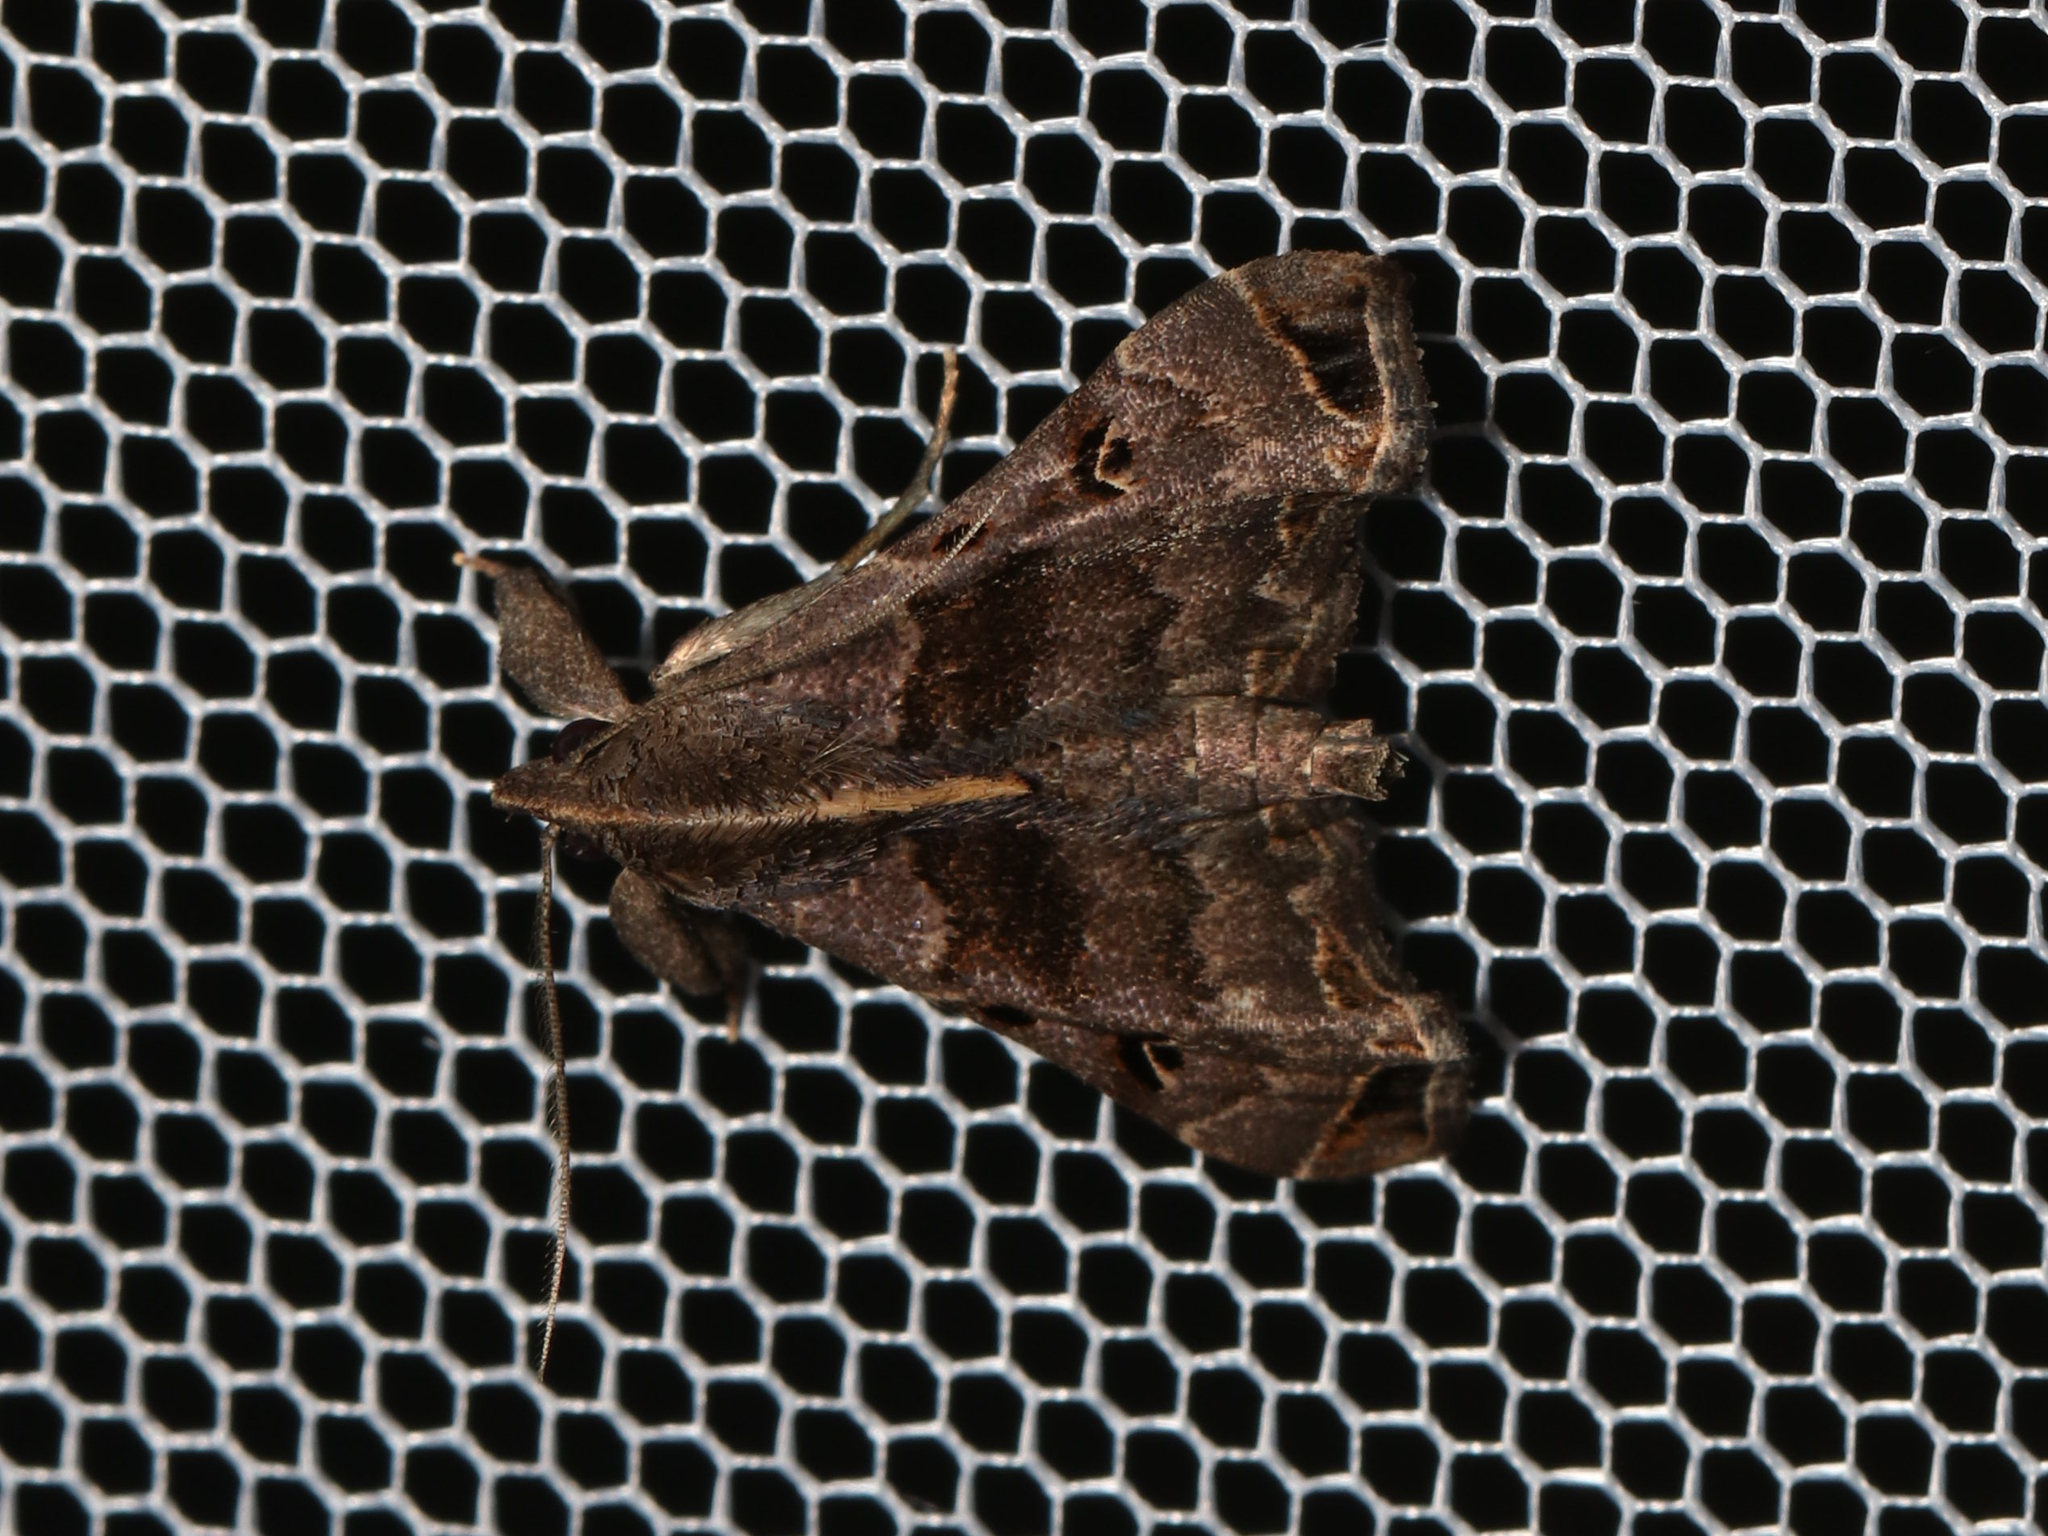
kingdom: Animalia
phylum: Arthropoda
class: Insecta
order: Lepidoptera
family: Erebidae
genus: Palthis
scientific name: Palthis asopialis
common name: Faint-spotted palthis moth
